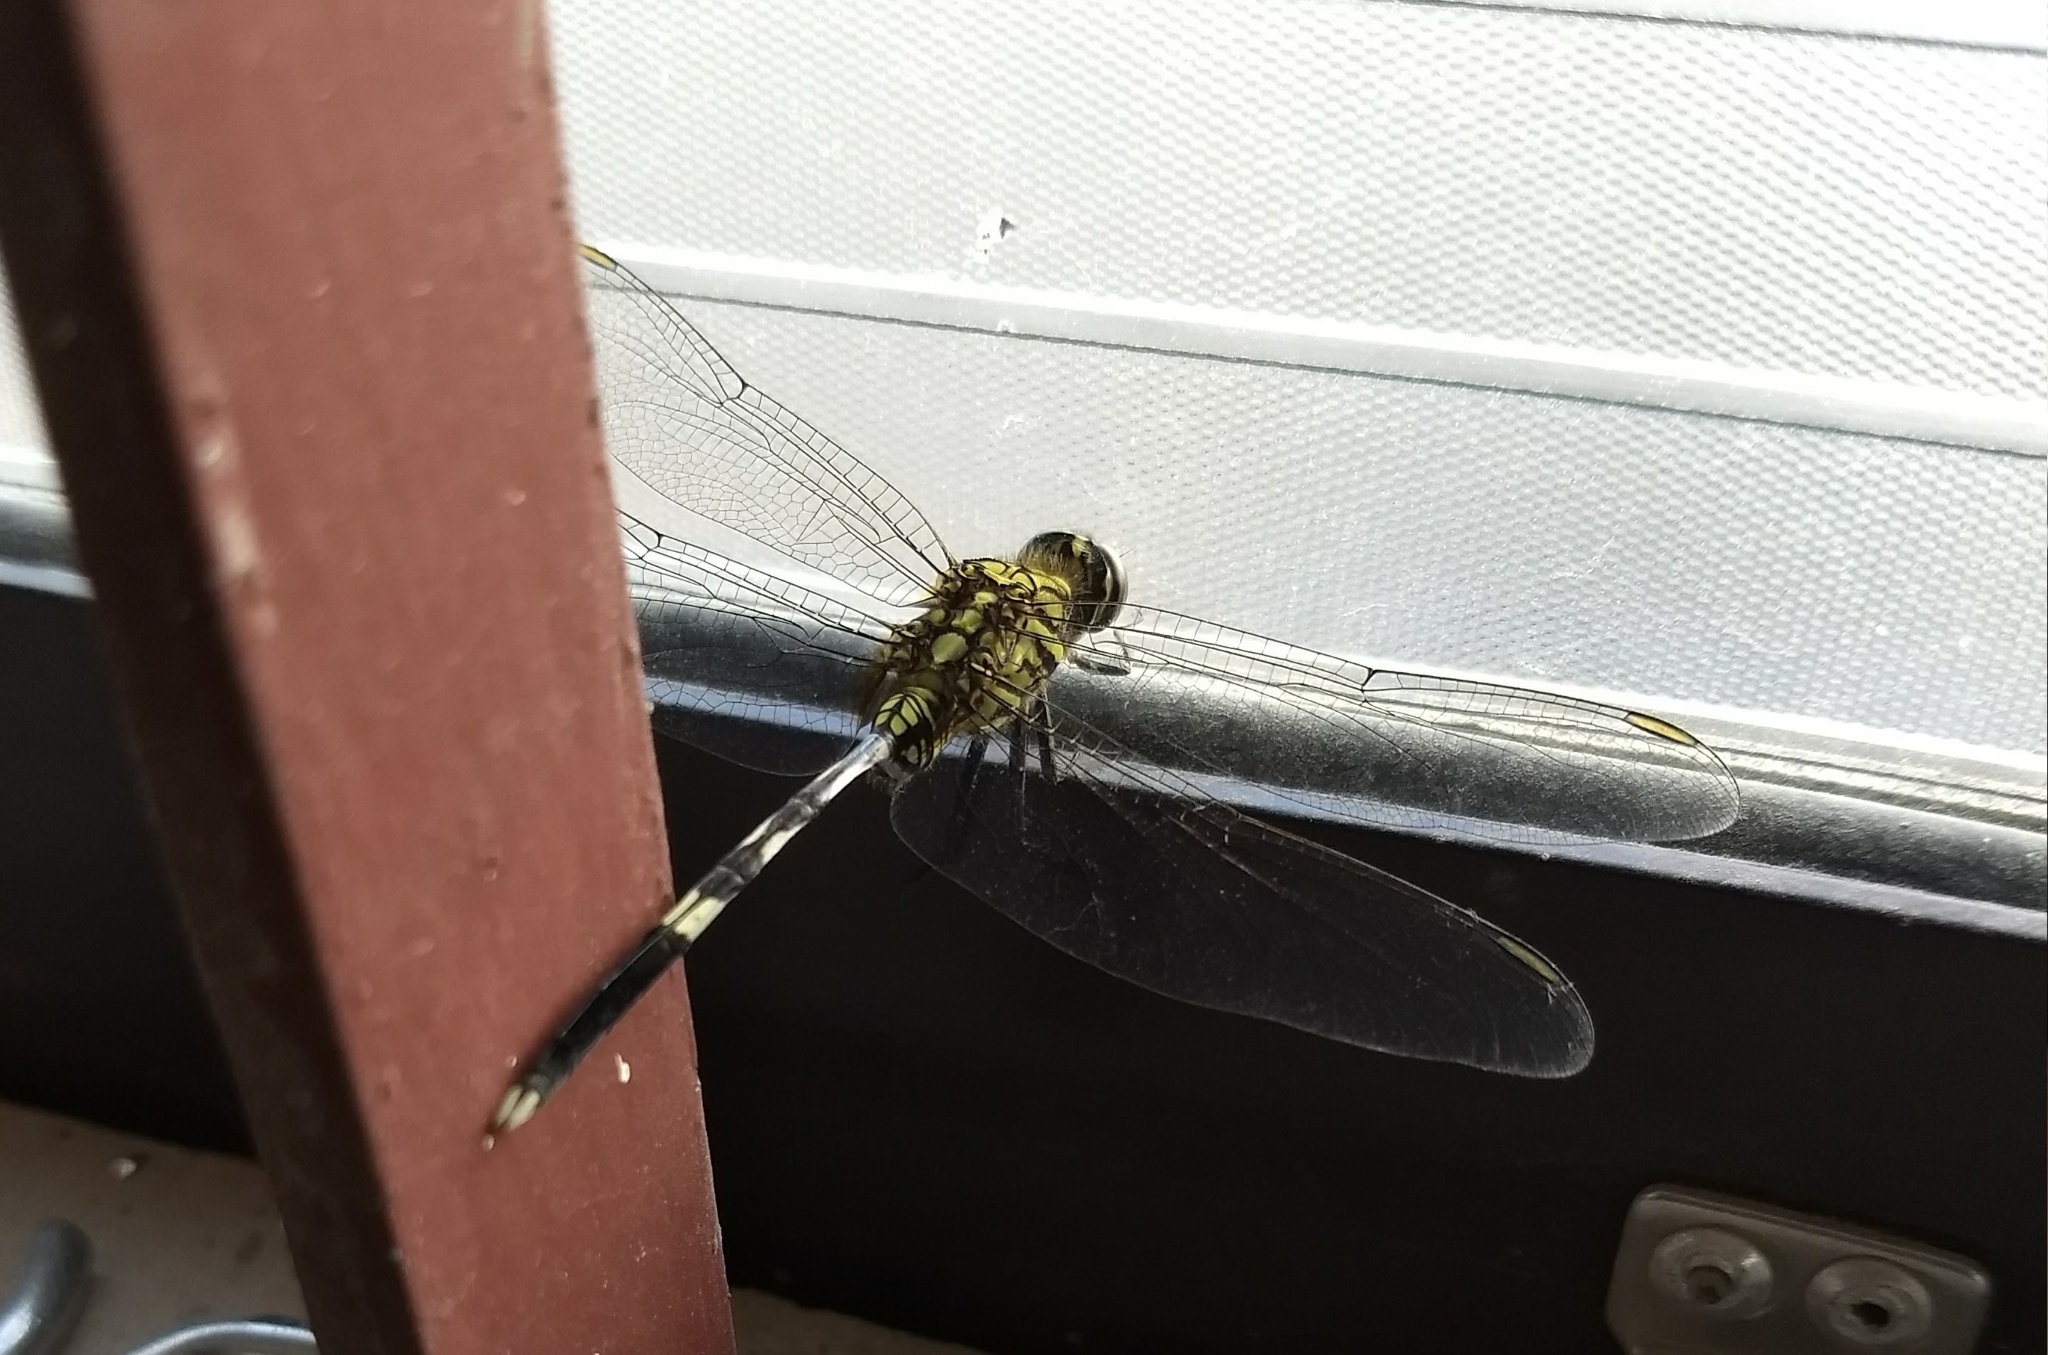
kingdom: Animalia
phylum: Arthropoda
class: Insecta
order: Odonata
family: Libellulidae
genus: Orthetrum
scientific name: Orthetrum sabina
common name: Slender skimmer
